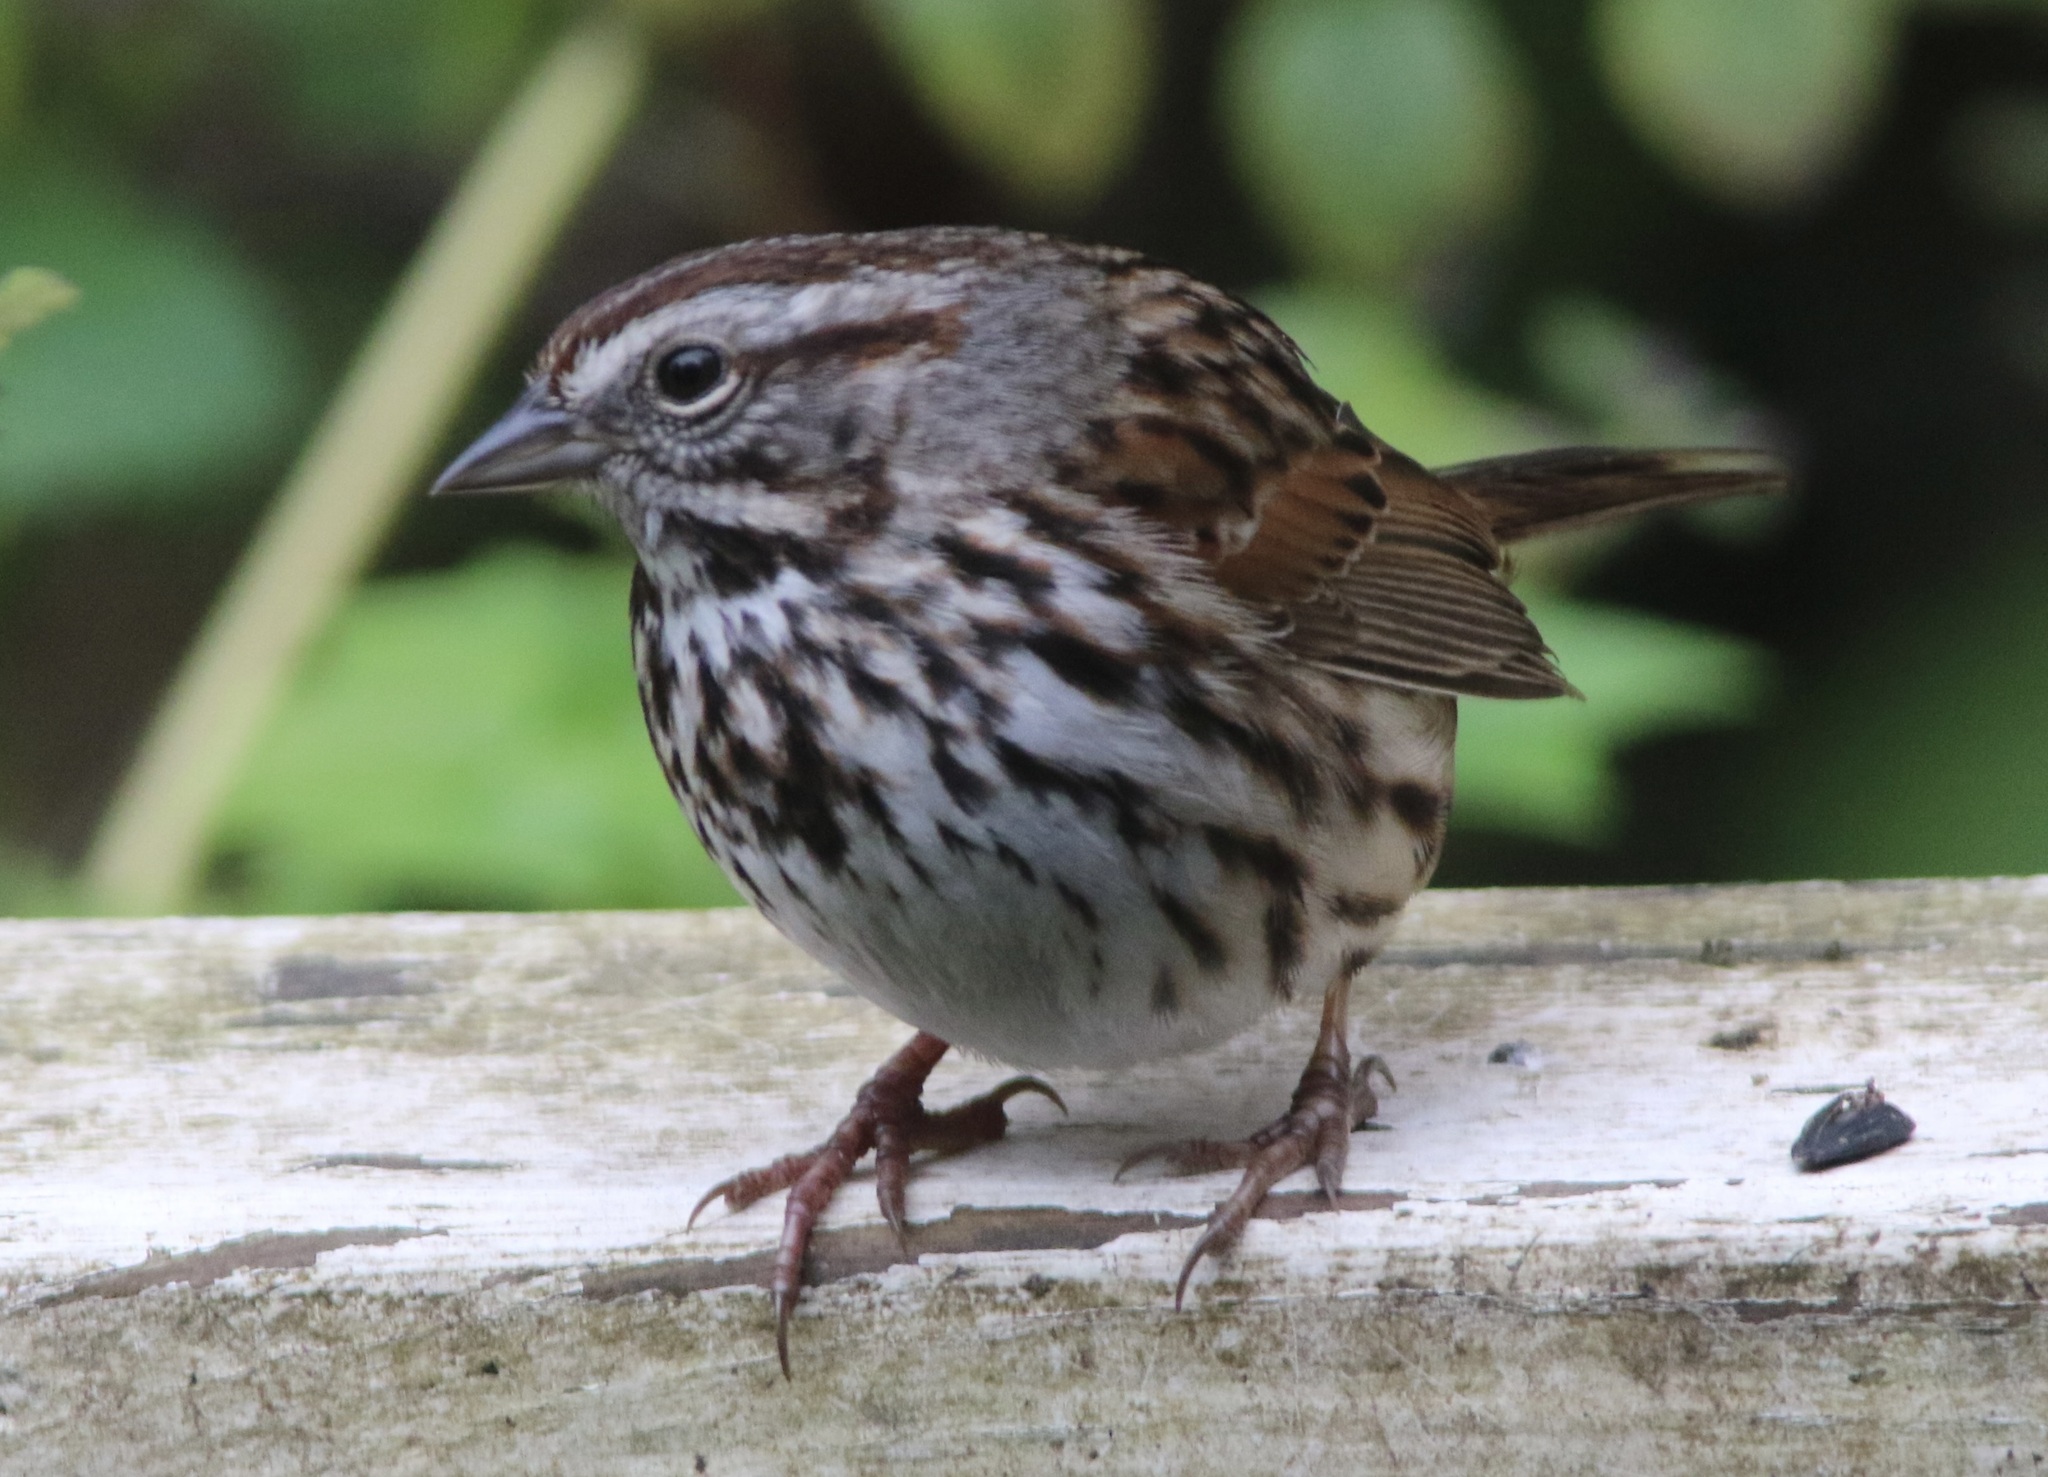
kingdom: Animalia
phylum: Chordata
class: Aves
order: Passeriformes
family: Passerellidae
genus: Melospiza
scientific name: Melospiza melodia
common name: Song sparrow
